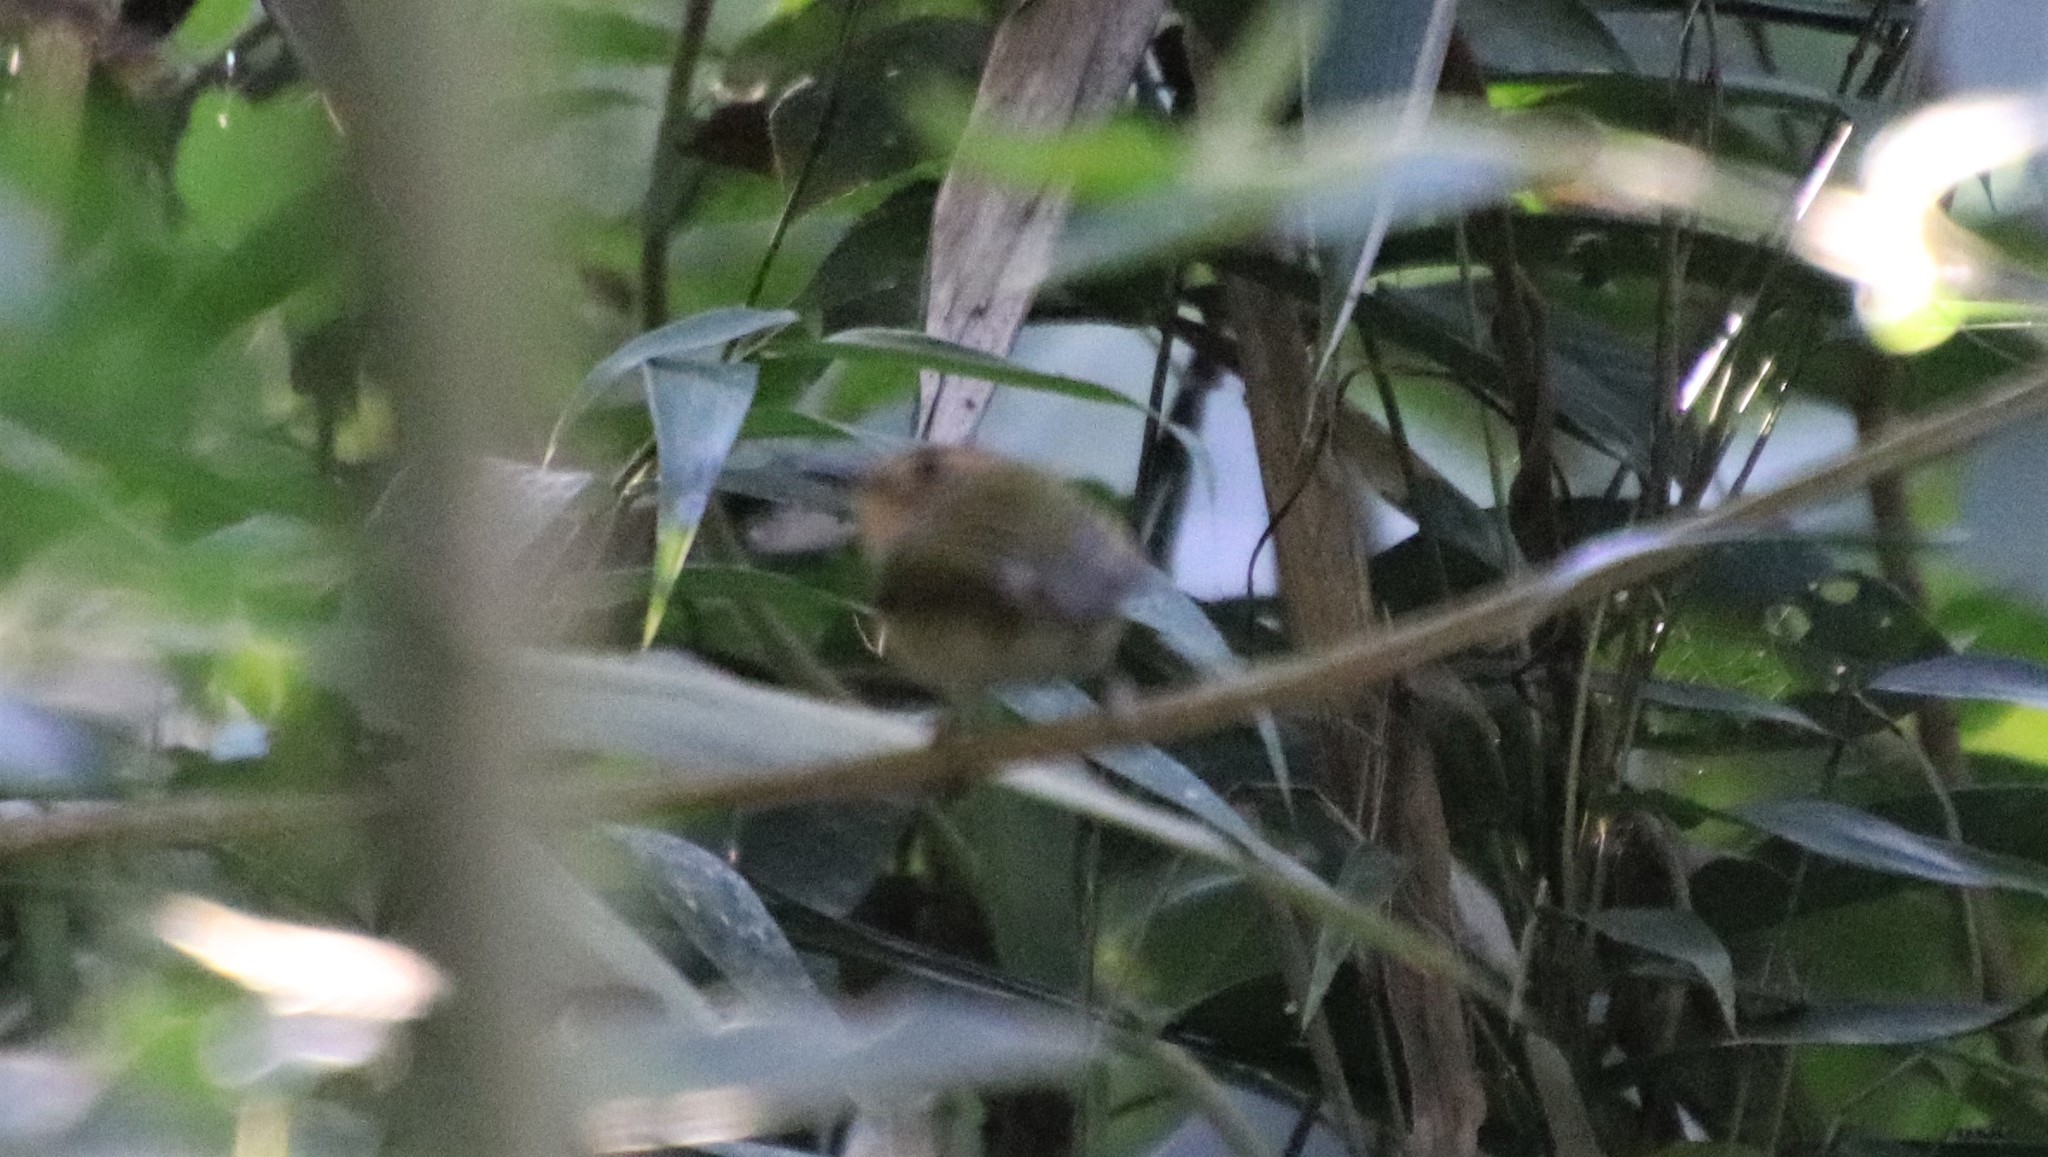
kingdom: Animalia
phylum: Chordata
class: Aves
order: Passeriformes
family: Tyrannidae
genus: Poecilotriccus
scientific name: Poecilotriccus plumbeiceps
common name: Ochre-faced tody-flycatcher
